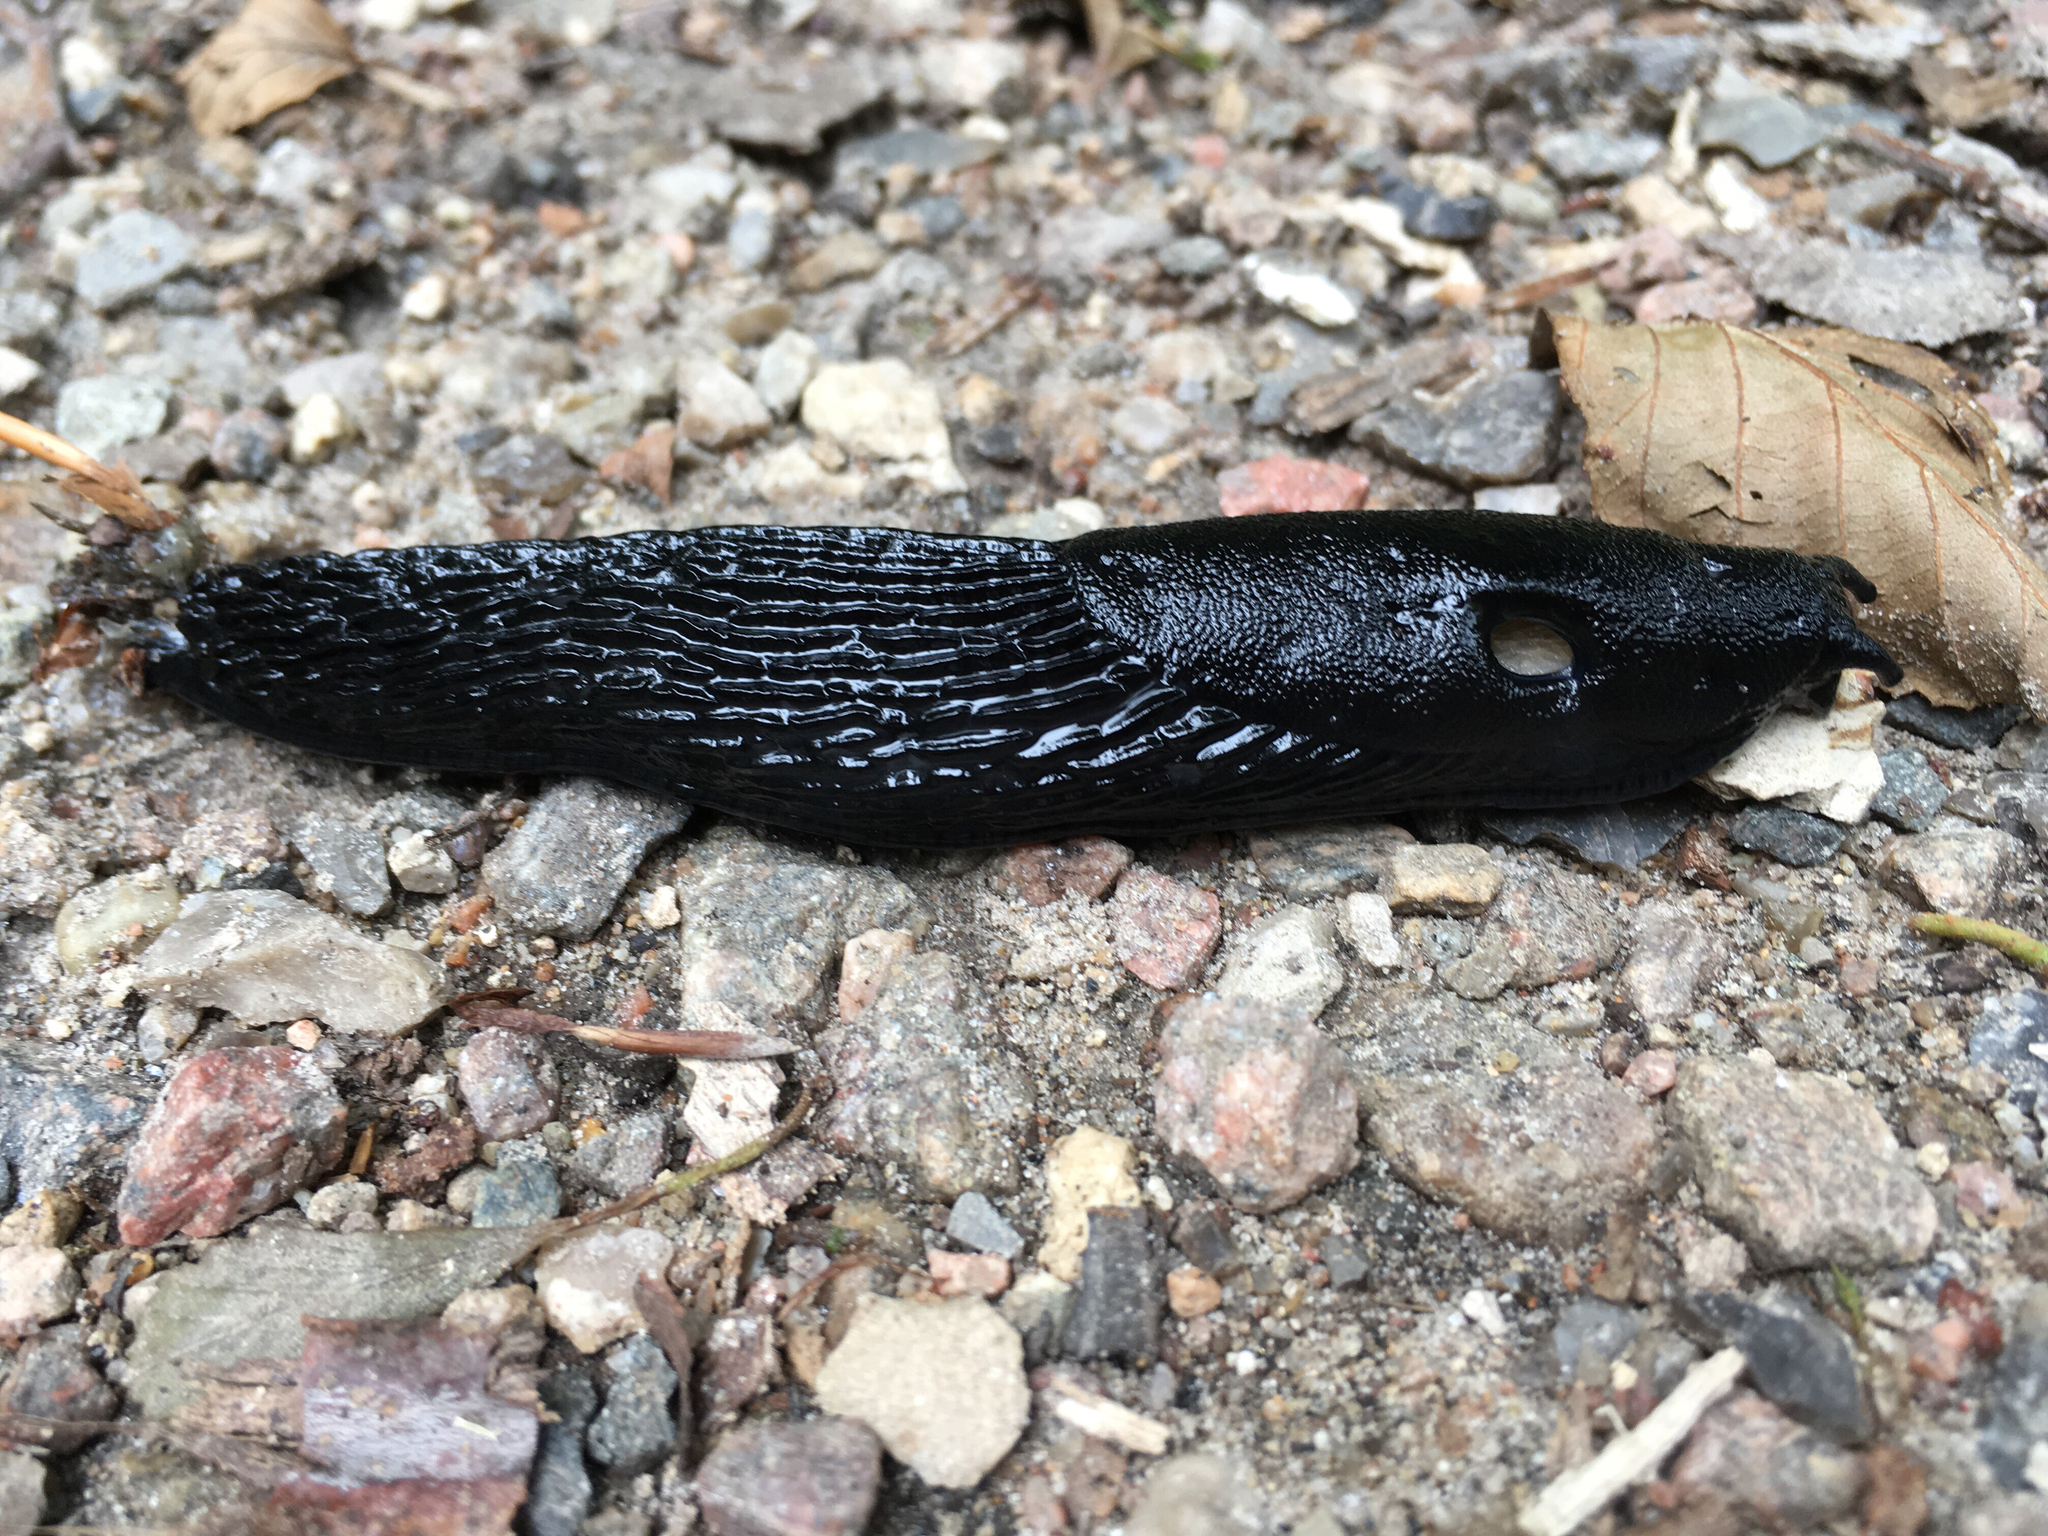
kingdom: Animalia
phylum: Mollusca
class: Gastropoda
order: Stylommatophora
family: Arionidae
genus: Arion
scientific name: Arion ater
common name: Black arion
